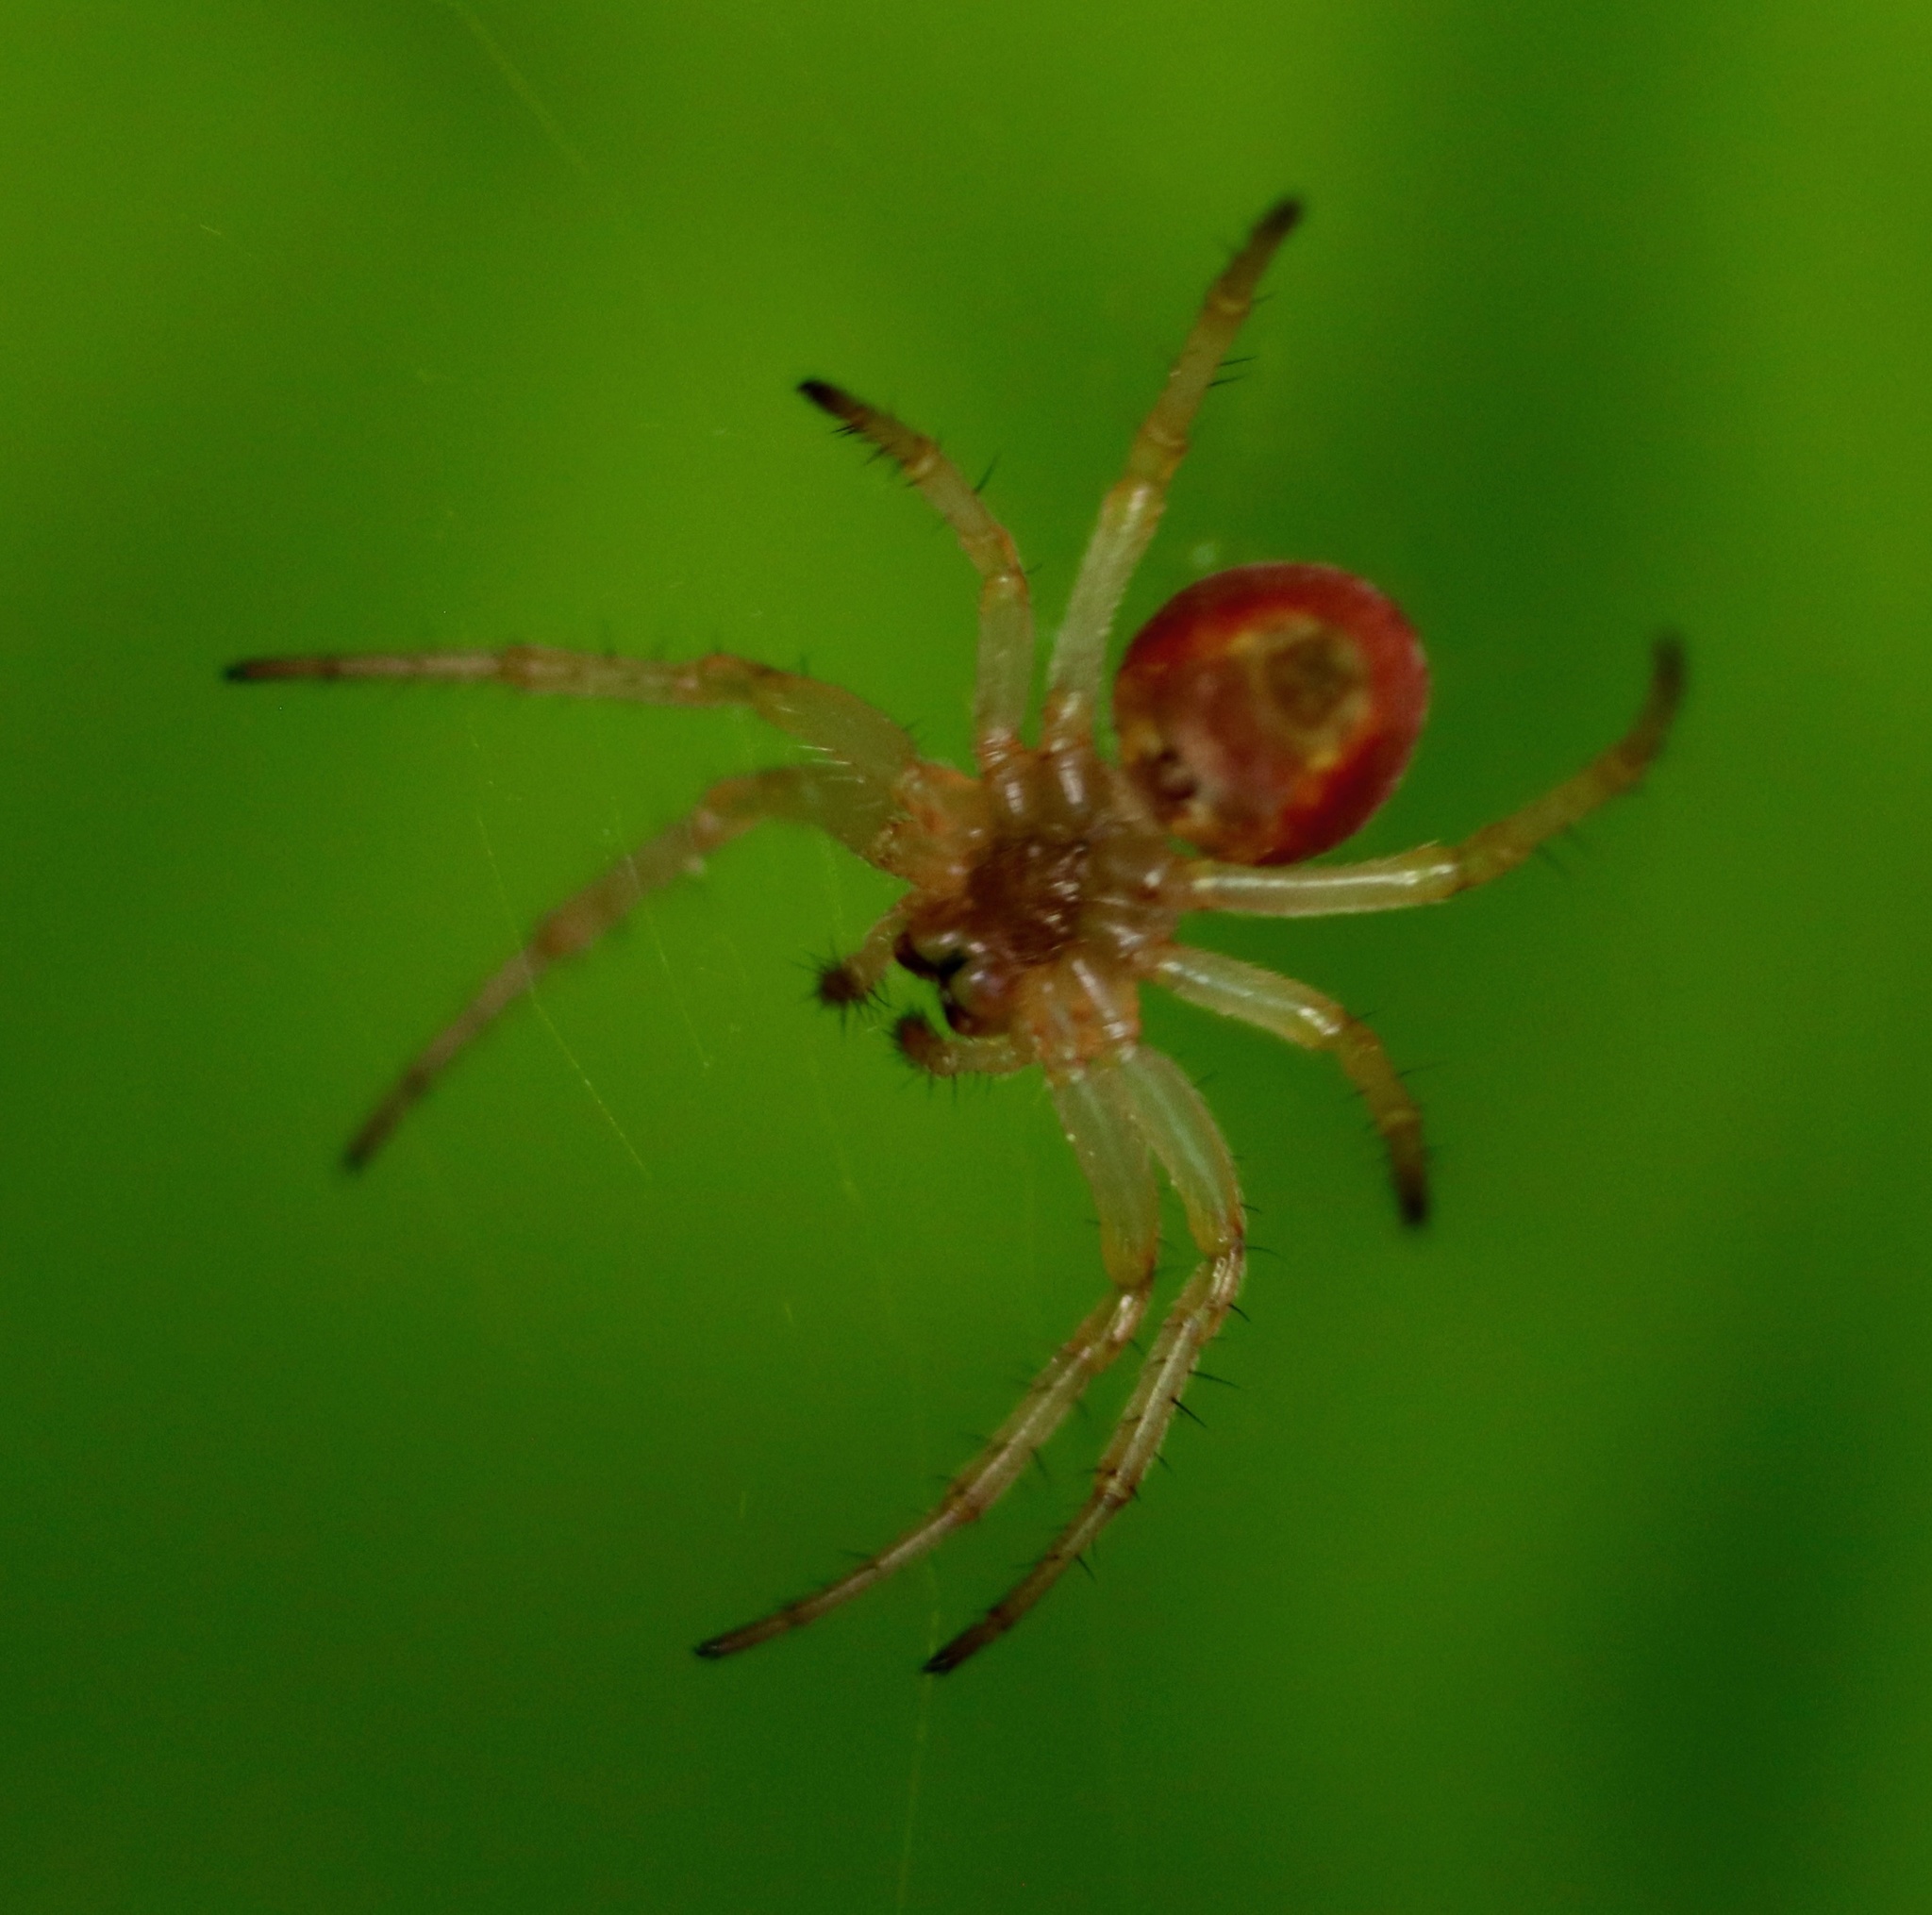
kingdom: Animalia
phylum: Arthropoda
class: Arachnida
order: Araneae
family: Araneidae
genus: Araniella
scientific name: Araniella displicata
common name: Sixspotted orb weaver
